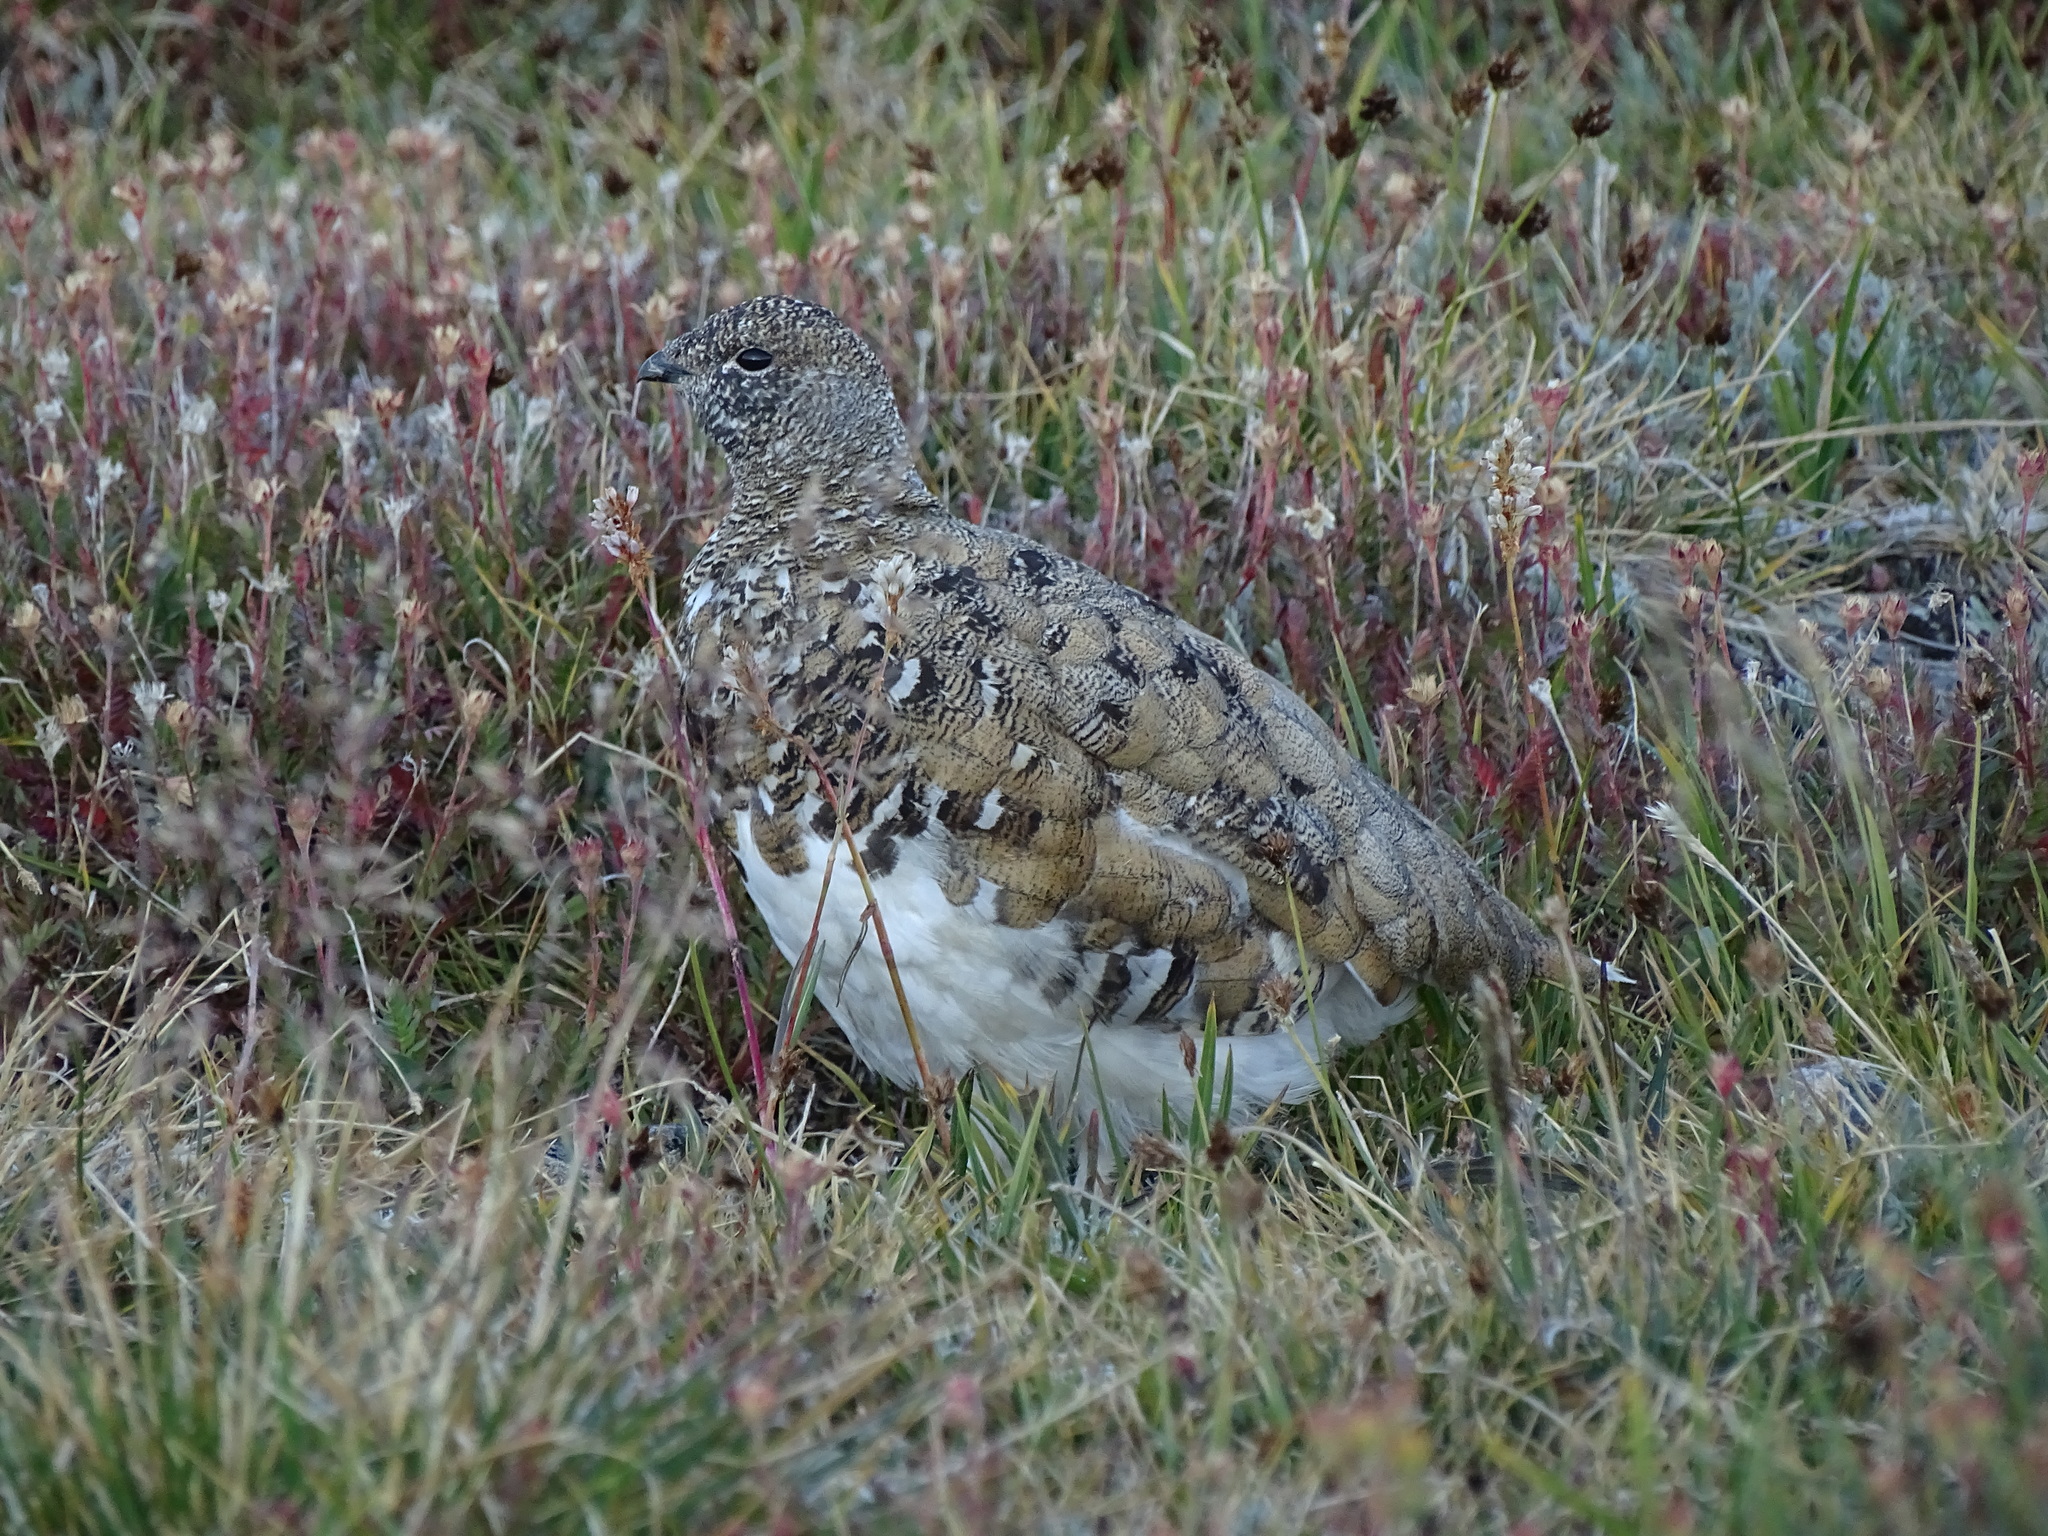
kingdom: Animalia
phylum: Chordata
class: Aves
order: Galliformes
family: Phasianidae
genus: Lagopus
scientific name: Lagopus leucura
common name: White-tailed ptarmigan
